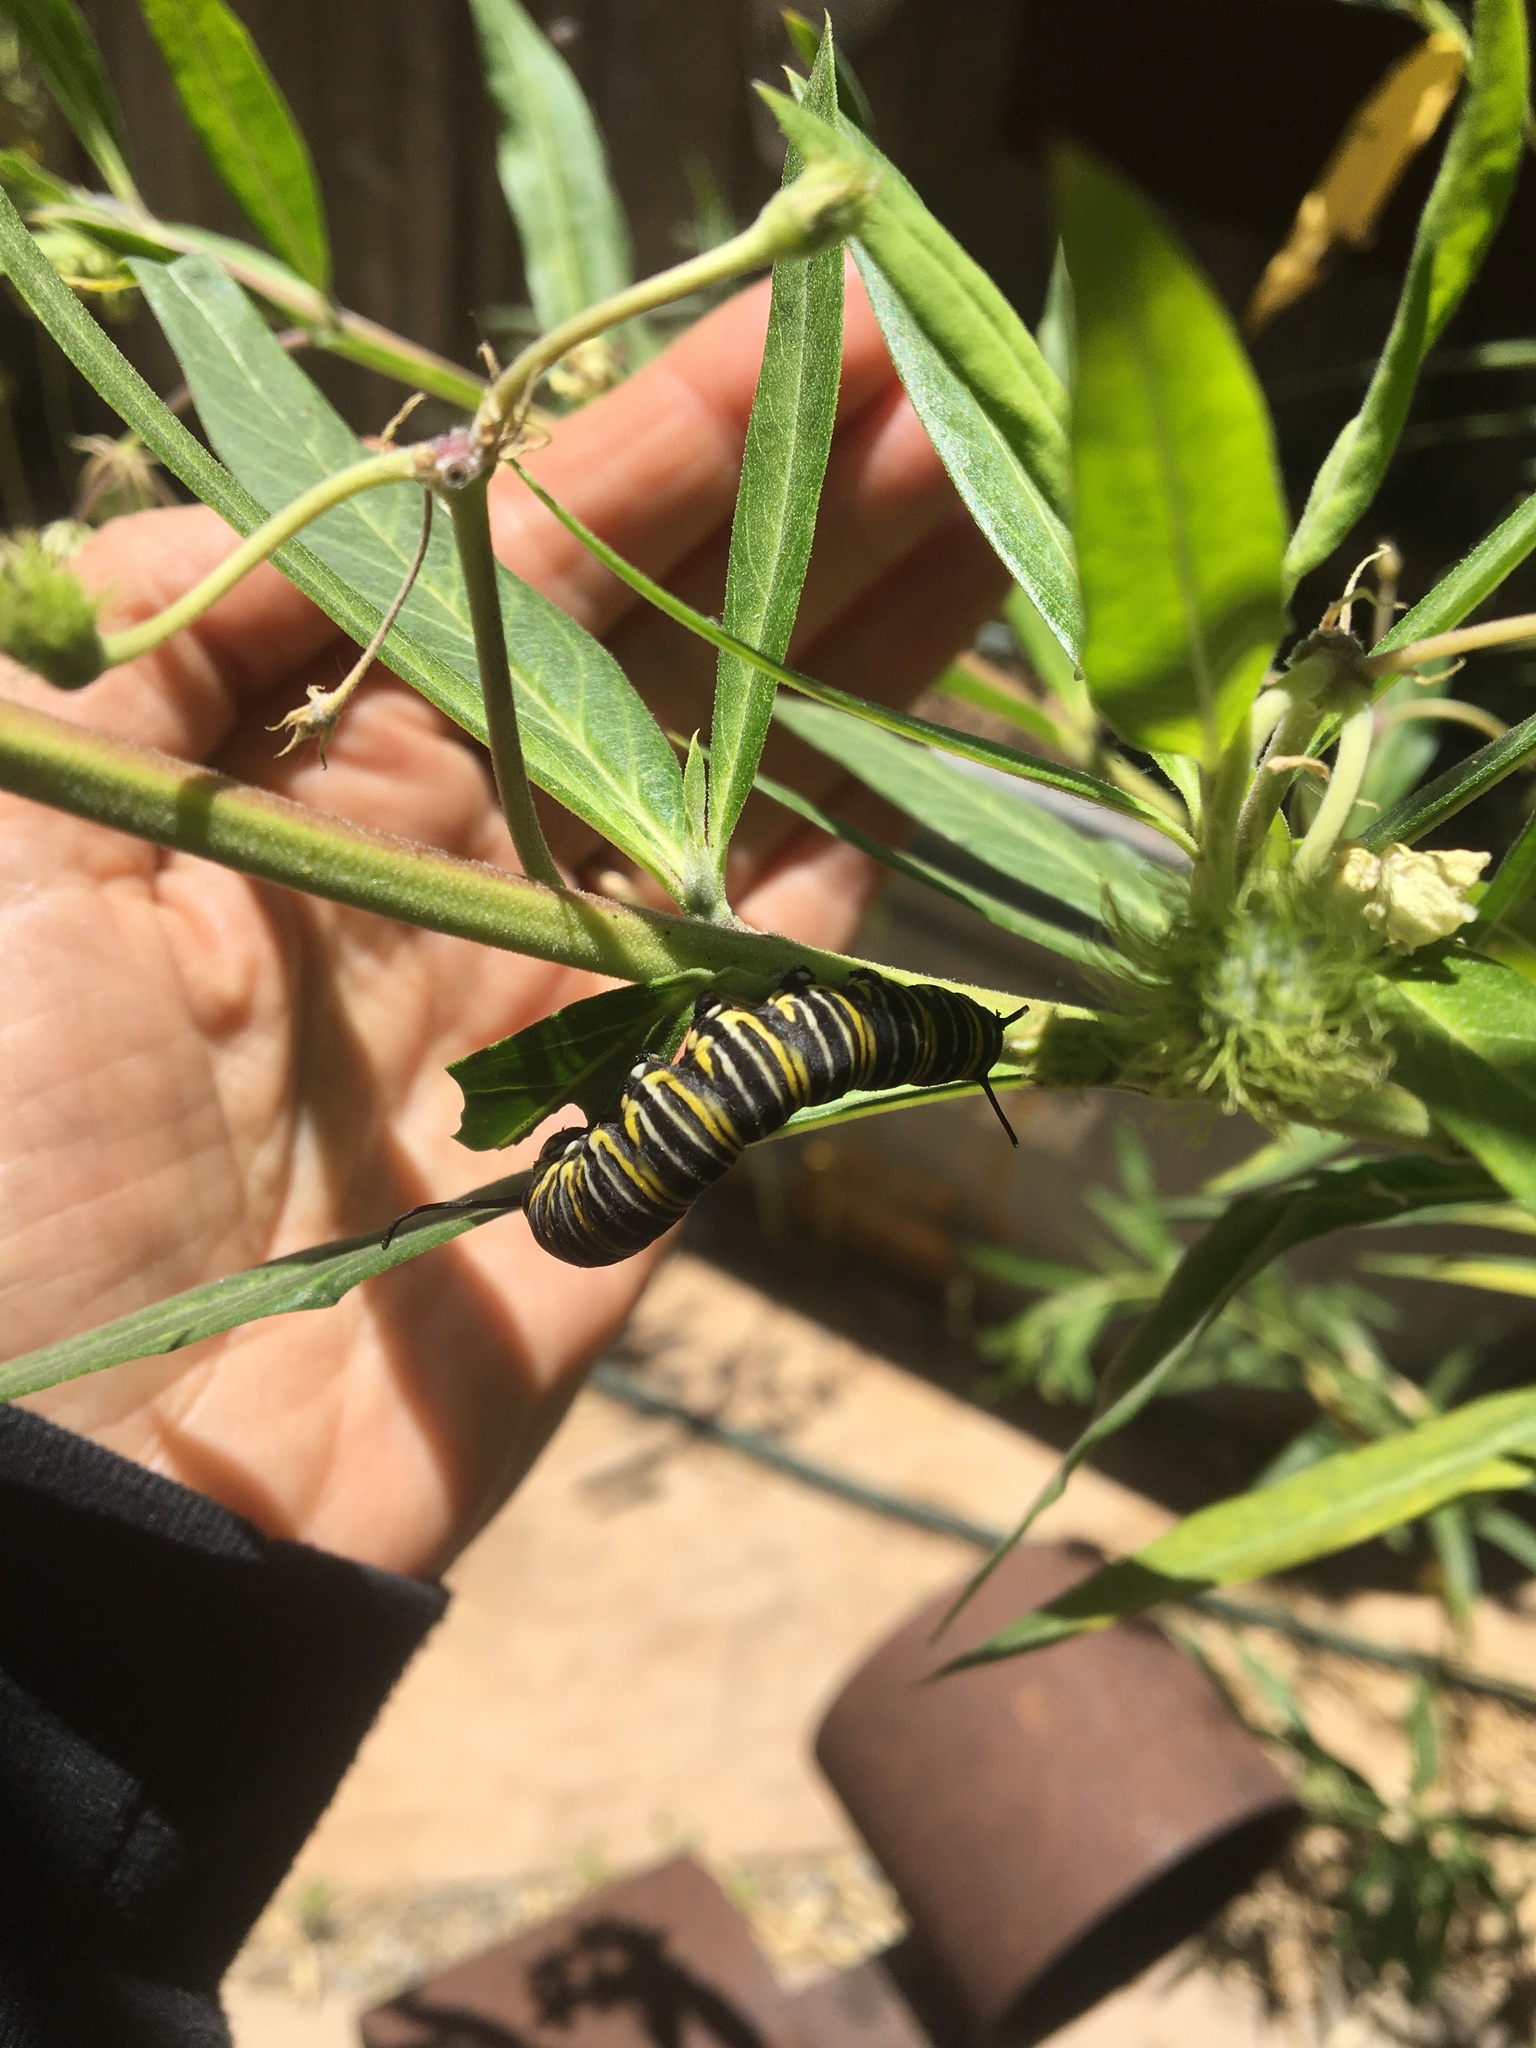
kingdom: Animalia
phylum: Arthropoda
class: Insecta
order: Lepidoptera
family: Nymphalidae
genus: Danaus
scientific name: Danaus plexippus
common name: Monarch
